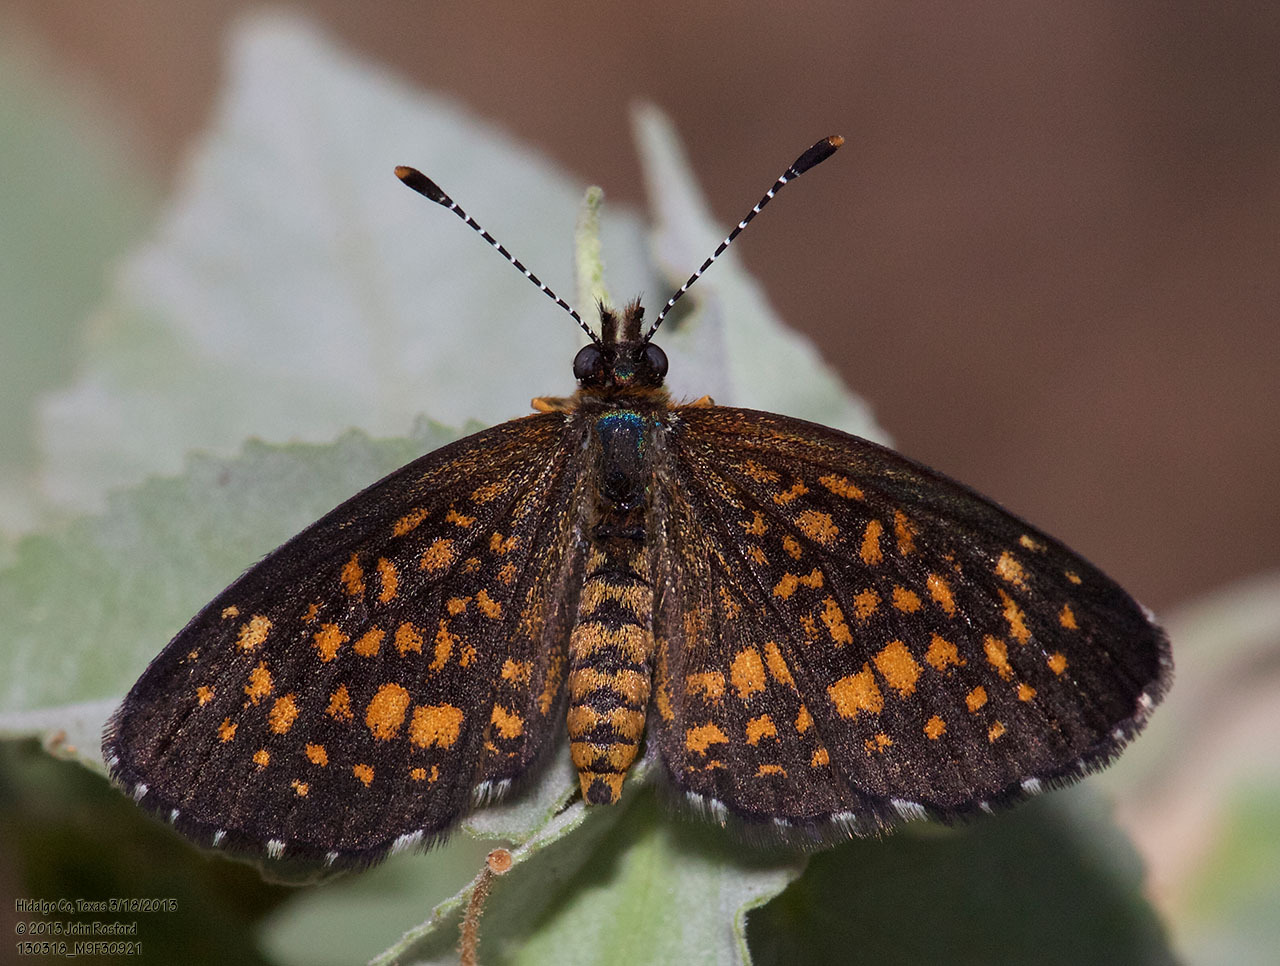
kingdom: Animalia
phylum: Arthropoda
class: Insecta
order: Lepidoptera
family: Nymphalidae
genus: Texola
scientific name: Texola elada
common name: Elada checkerspot
